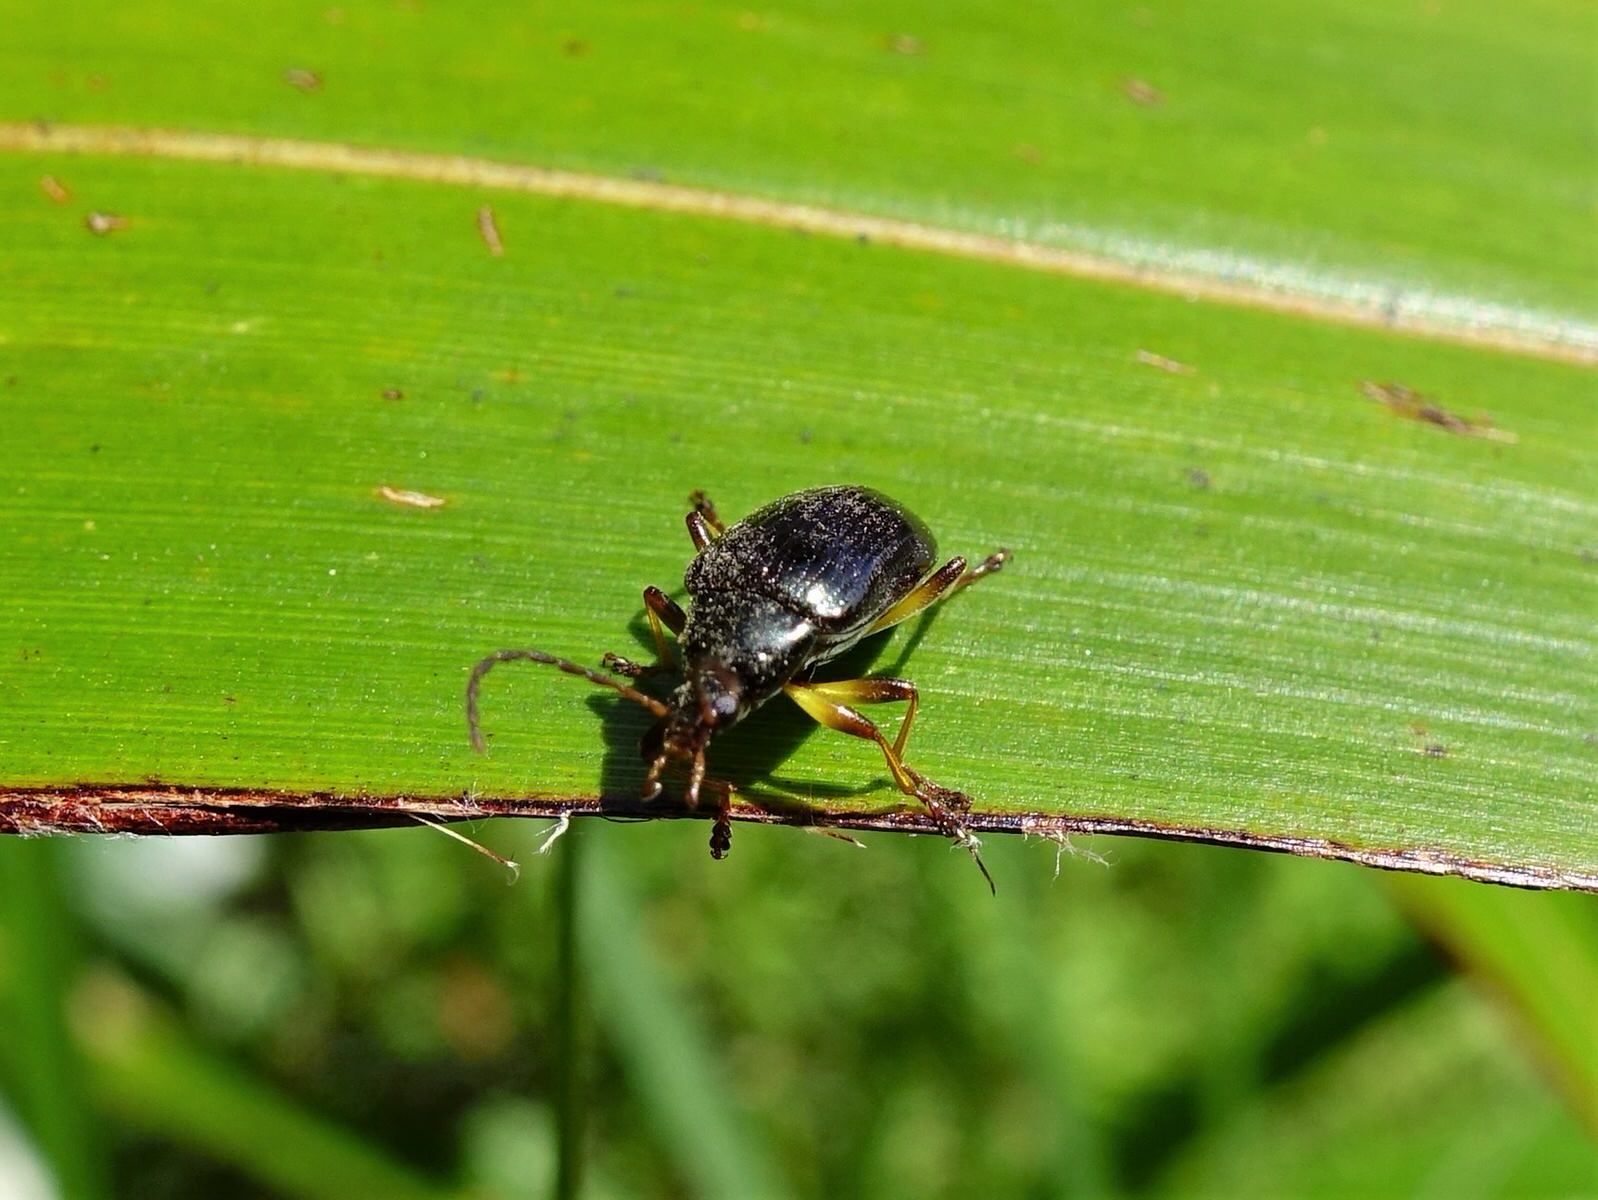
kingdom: Animalia
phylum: Arthropoda
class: Insecta
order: Coleoptera
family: Tenebrionidae
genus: Tanychilus
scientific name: Tanychilus
